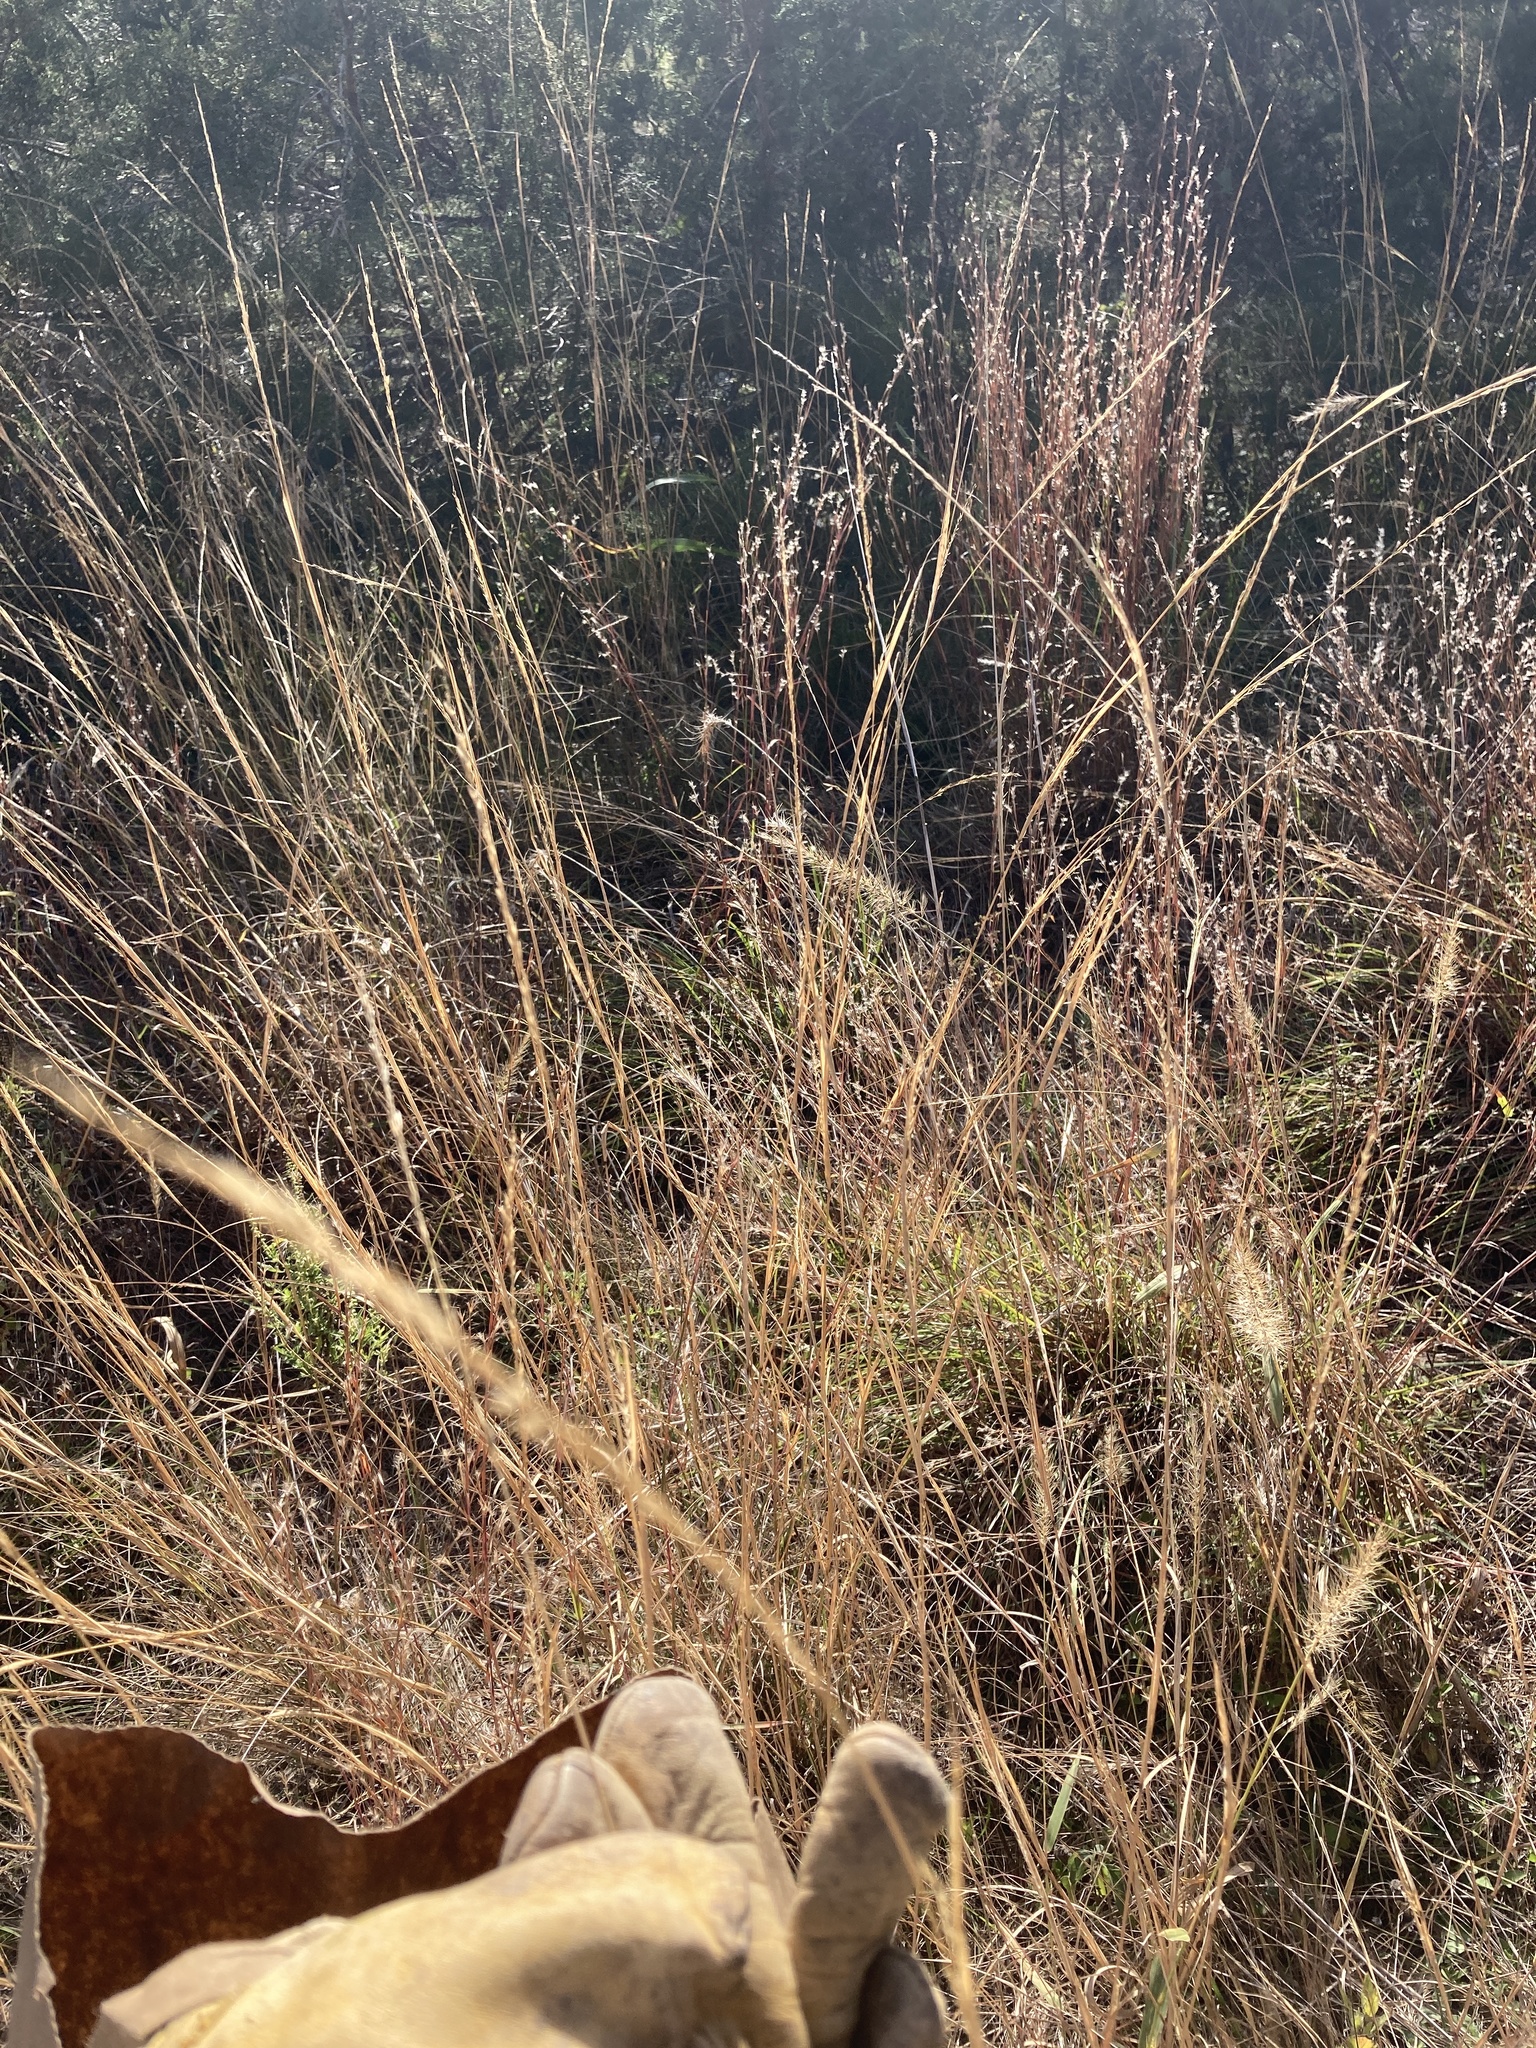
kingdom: Plantae
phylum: Tracheophyta
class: Liliopsida
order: Poales
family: Poaceae
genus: Sporobolus
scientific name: Sporobolus compositus
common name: Rough dropseed
